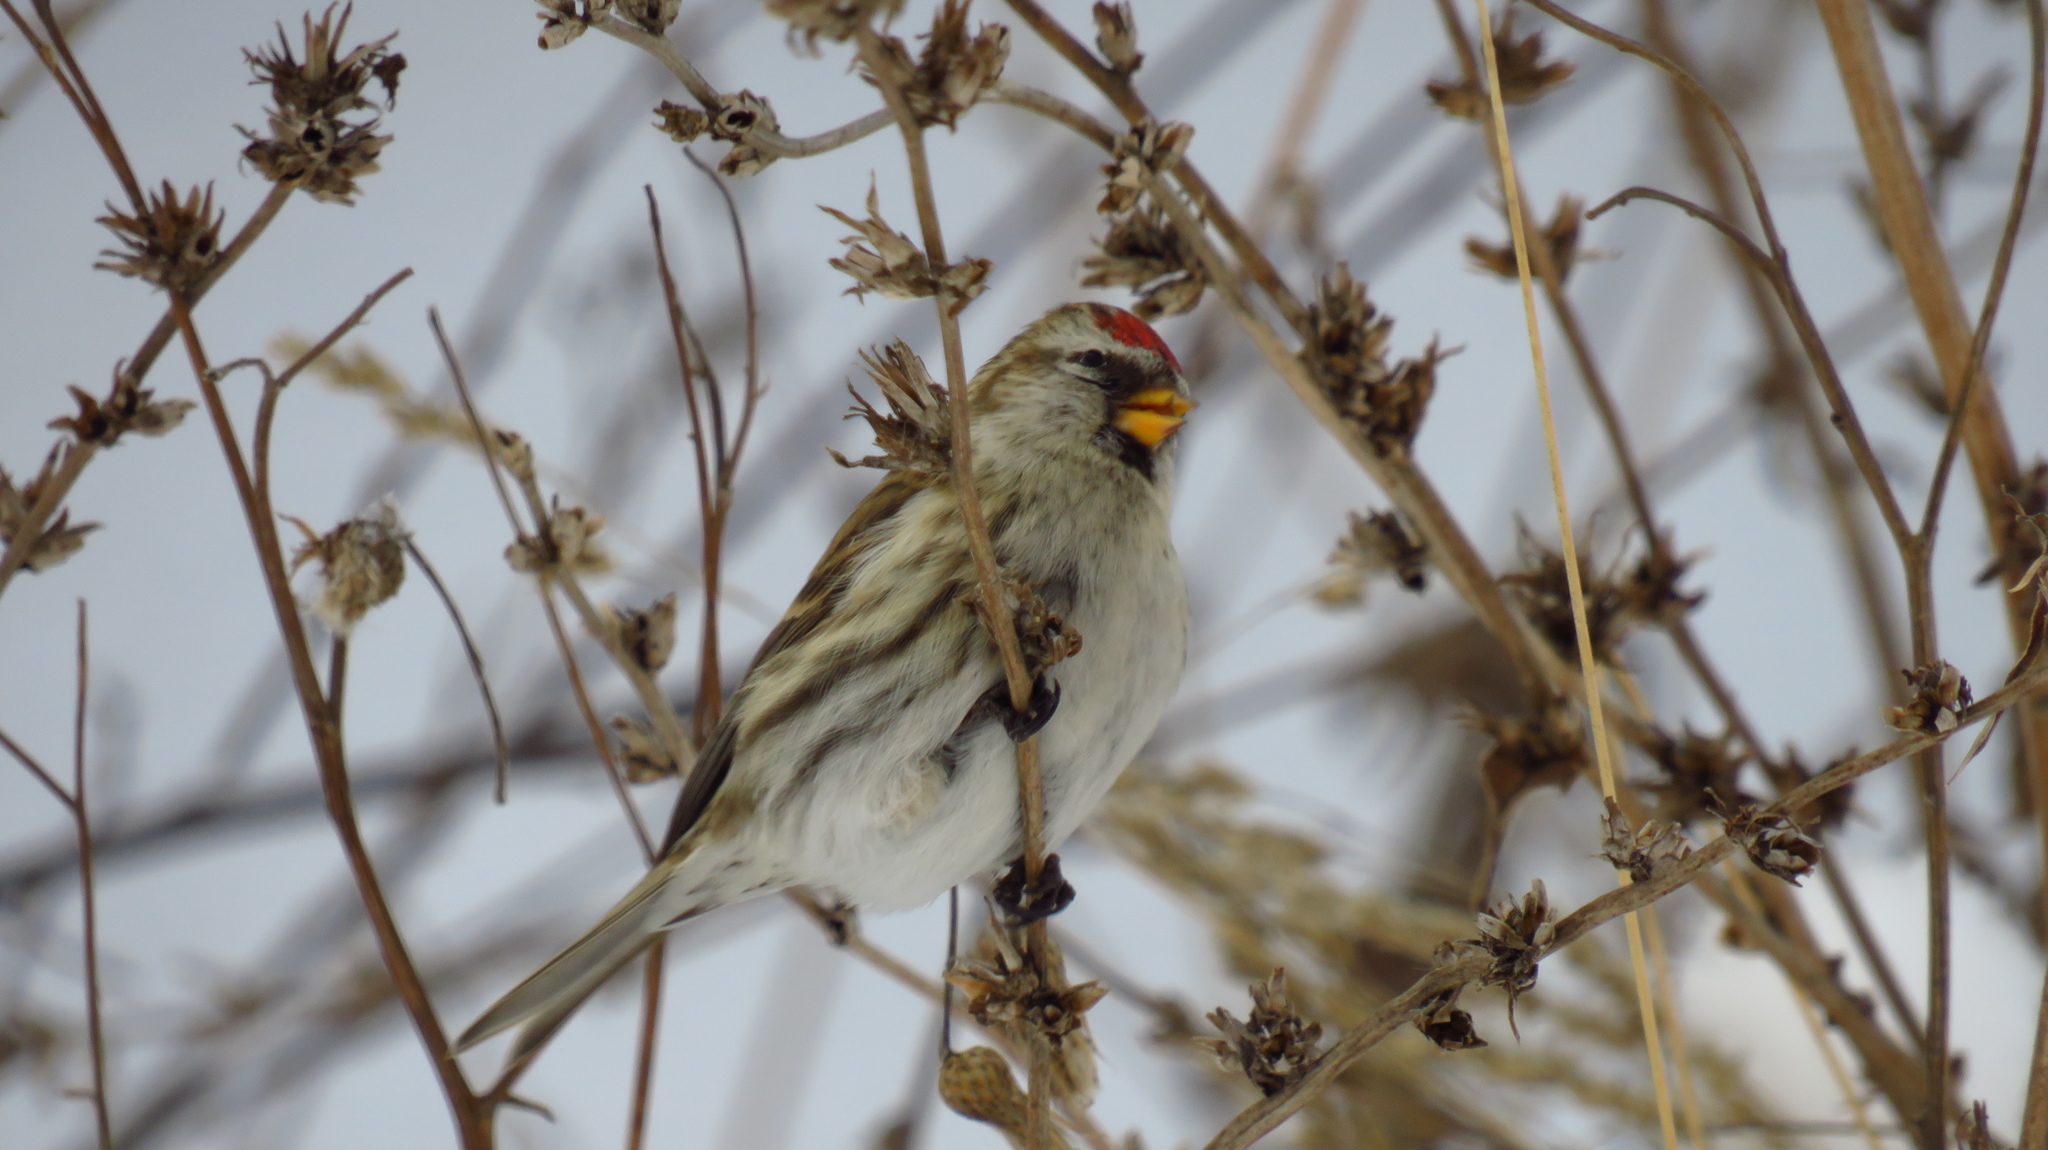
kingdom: Animalia
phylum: Chordata
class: Aves
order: Passeriformes
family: Fringillidae
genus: Acanthis
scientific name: Acanthis flammea
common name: Common redpoll
